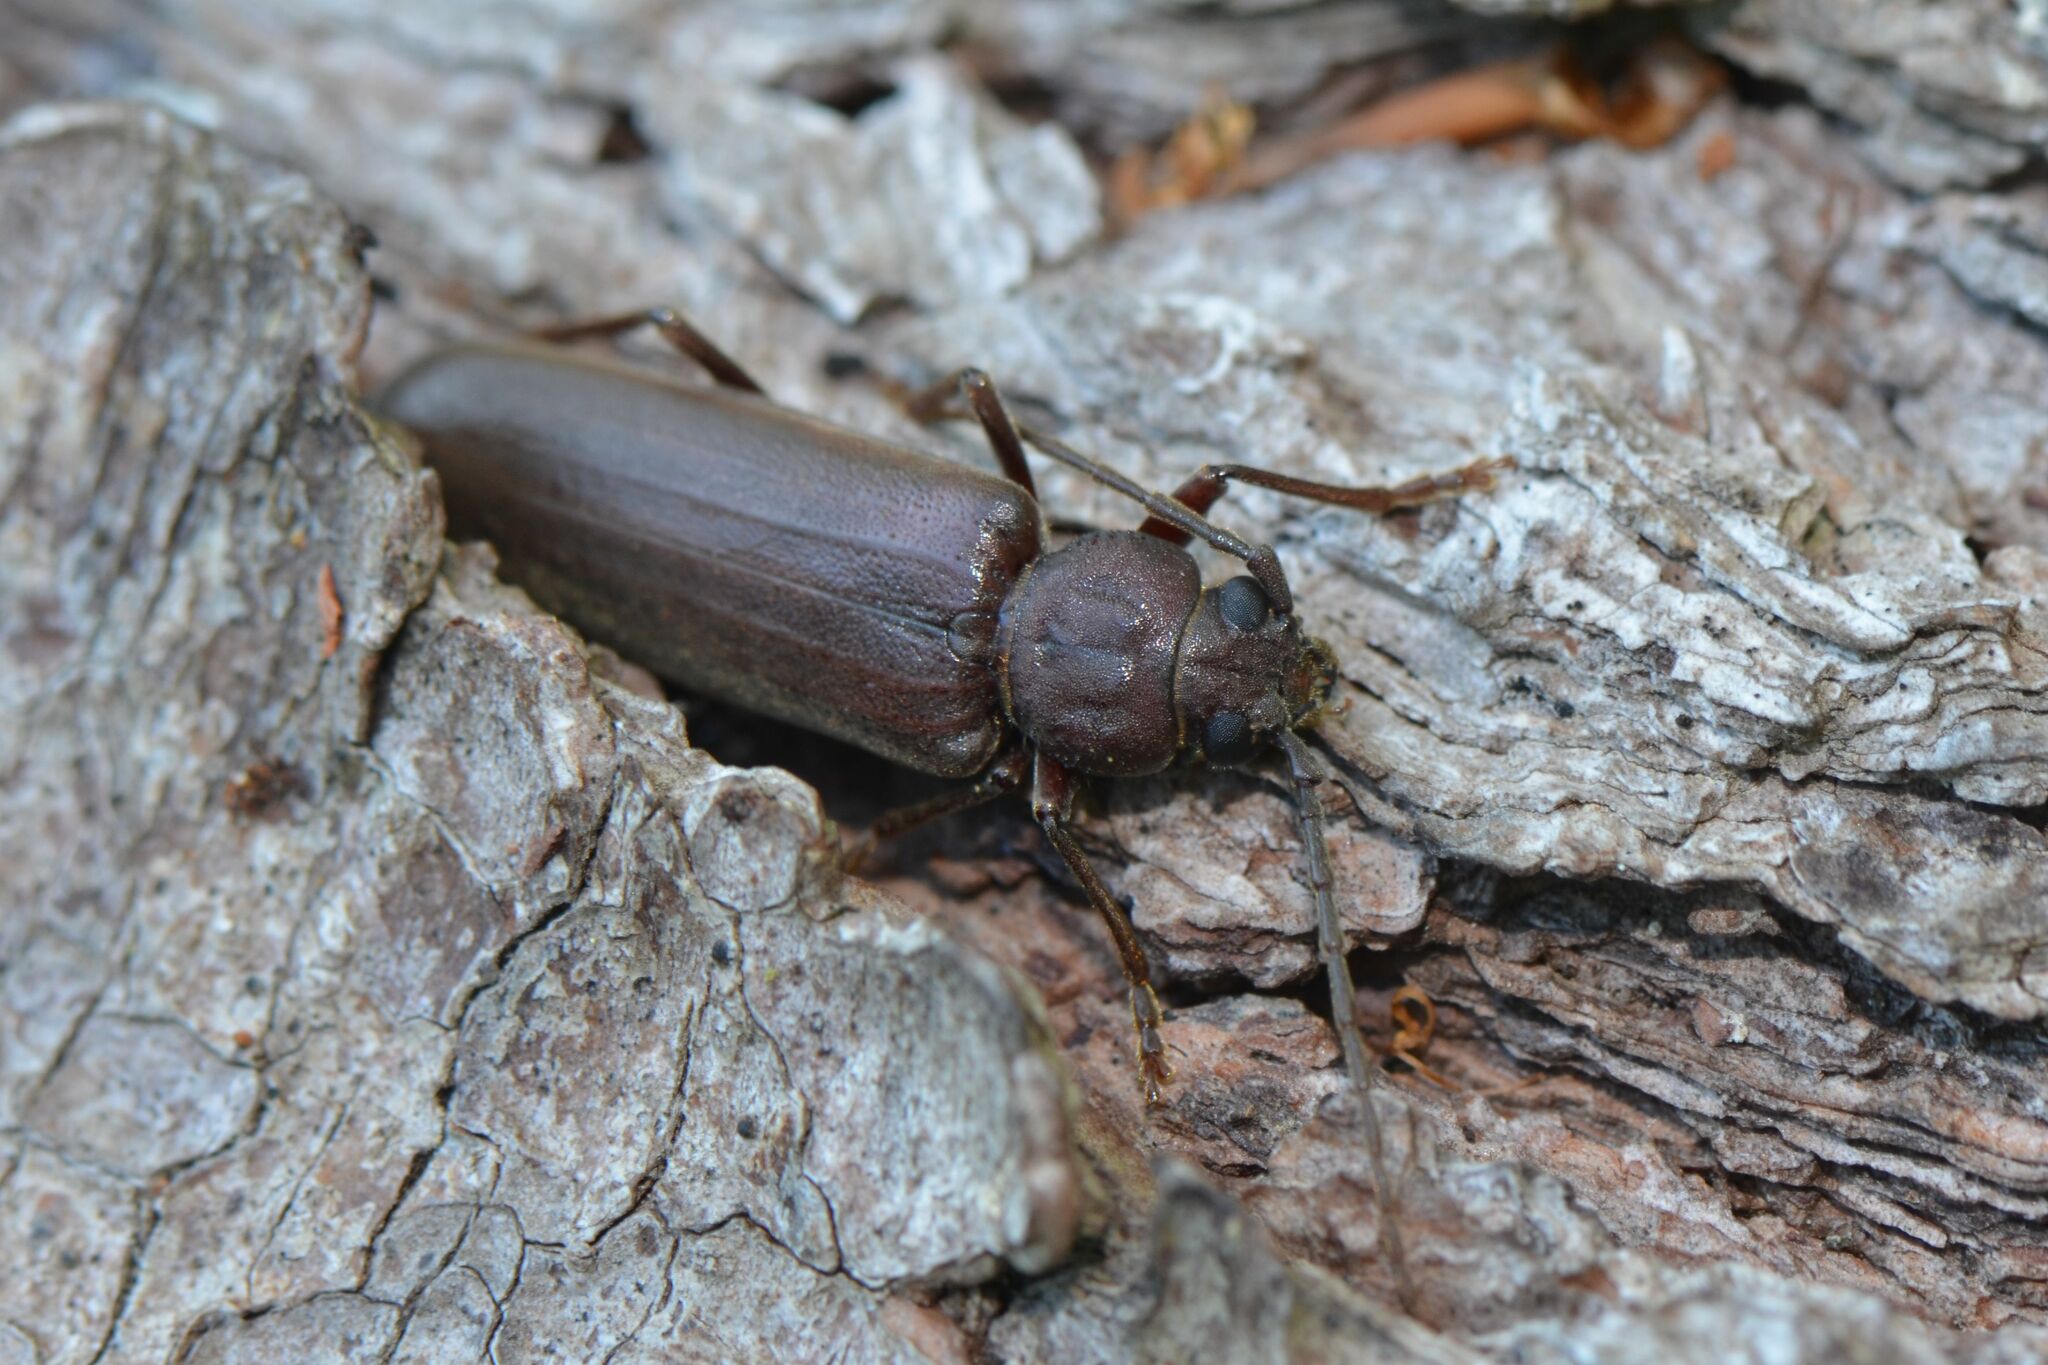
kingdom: Animalia
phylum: Arthropoda
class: Insecta
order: Coleoptera
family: Cerambycidae
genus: Arhopalus
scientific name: Arhopalus rusticus
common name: Rust pine borer
